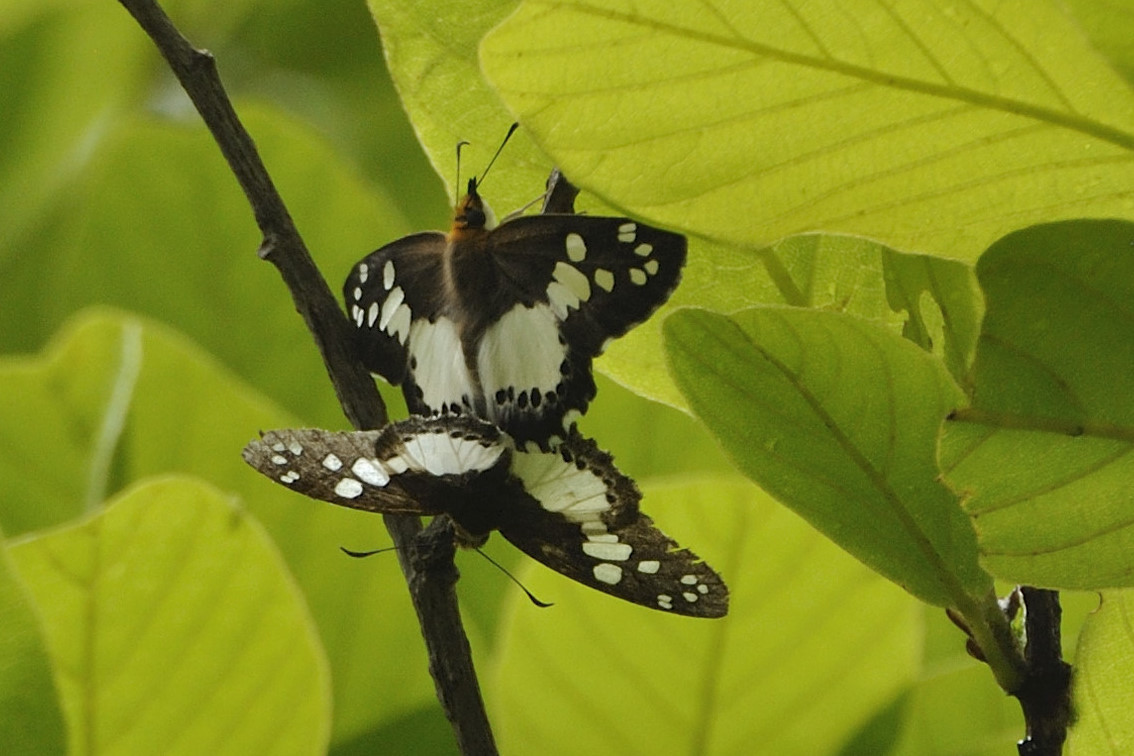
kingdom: Animalia
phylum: Arthropoda
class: Insecta
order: Lepidoptera
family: Hesperiidae
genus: Calleagris
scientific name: Calleagris jamesoni
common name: Jameson’s flat
